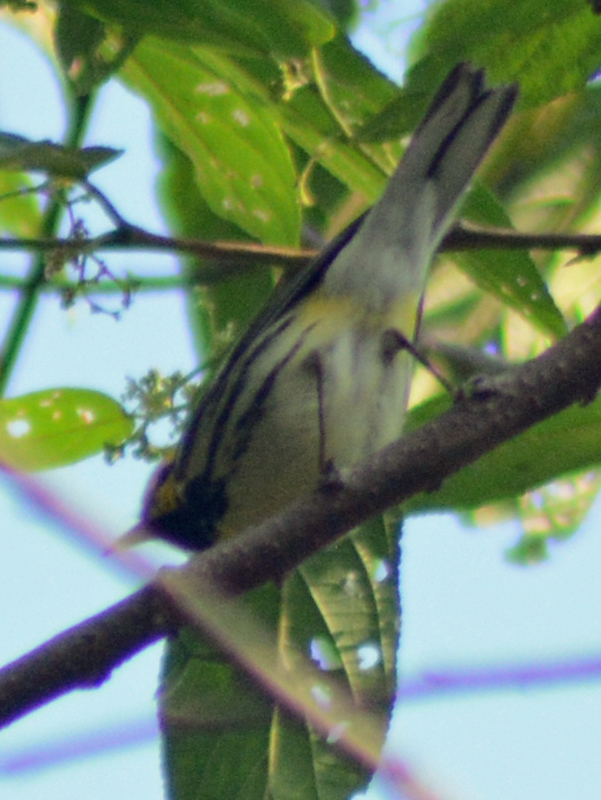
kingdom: Animalia
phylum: Chordata
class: Aves
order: Passeriformes
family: Parulidae
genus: Setophaga
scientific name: Setophaga virens
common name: Black-throated green warbler
